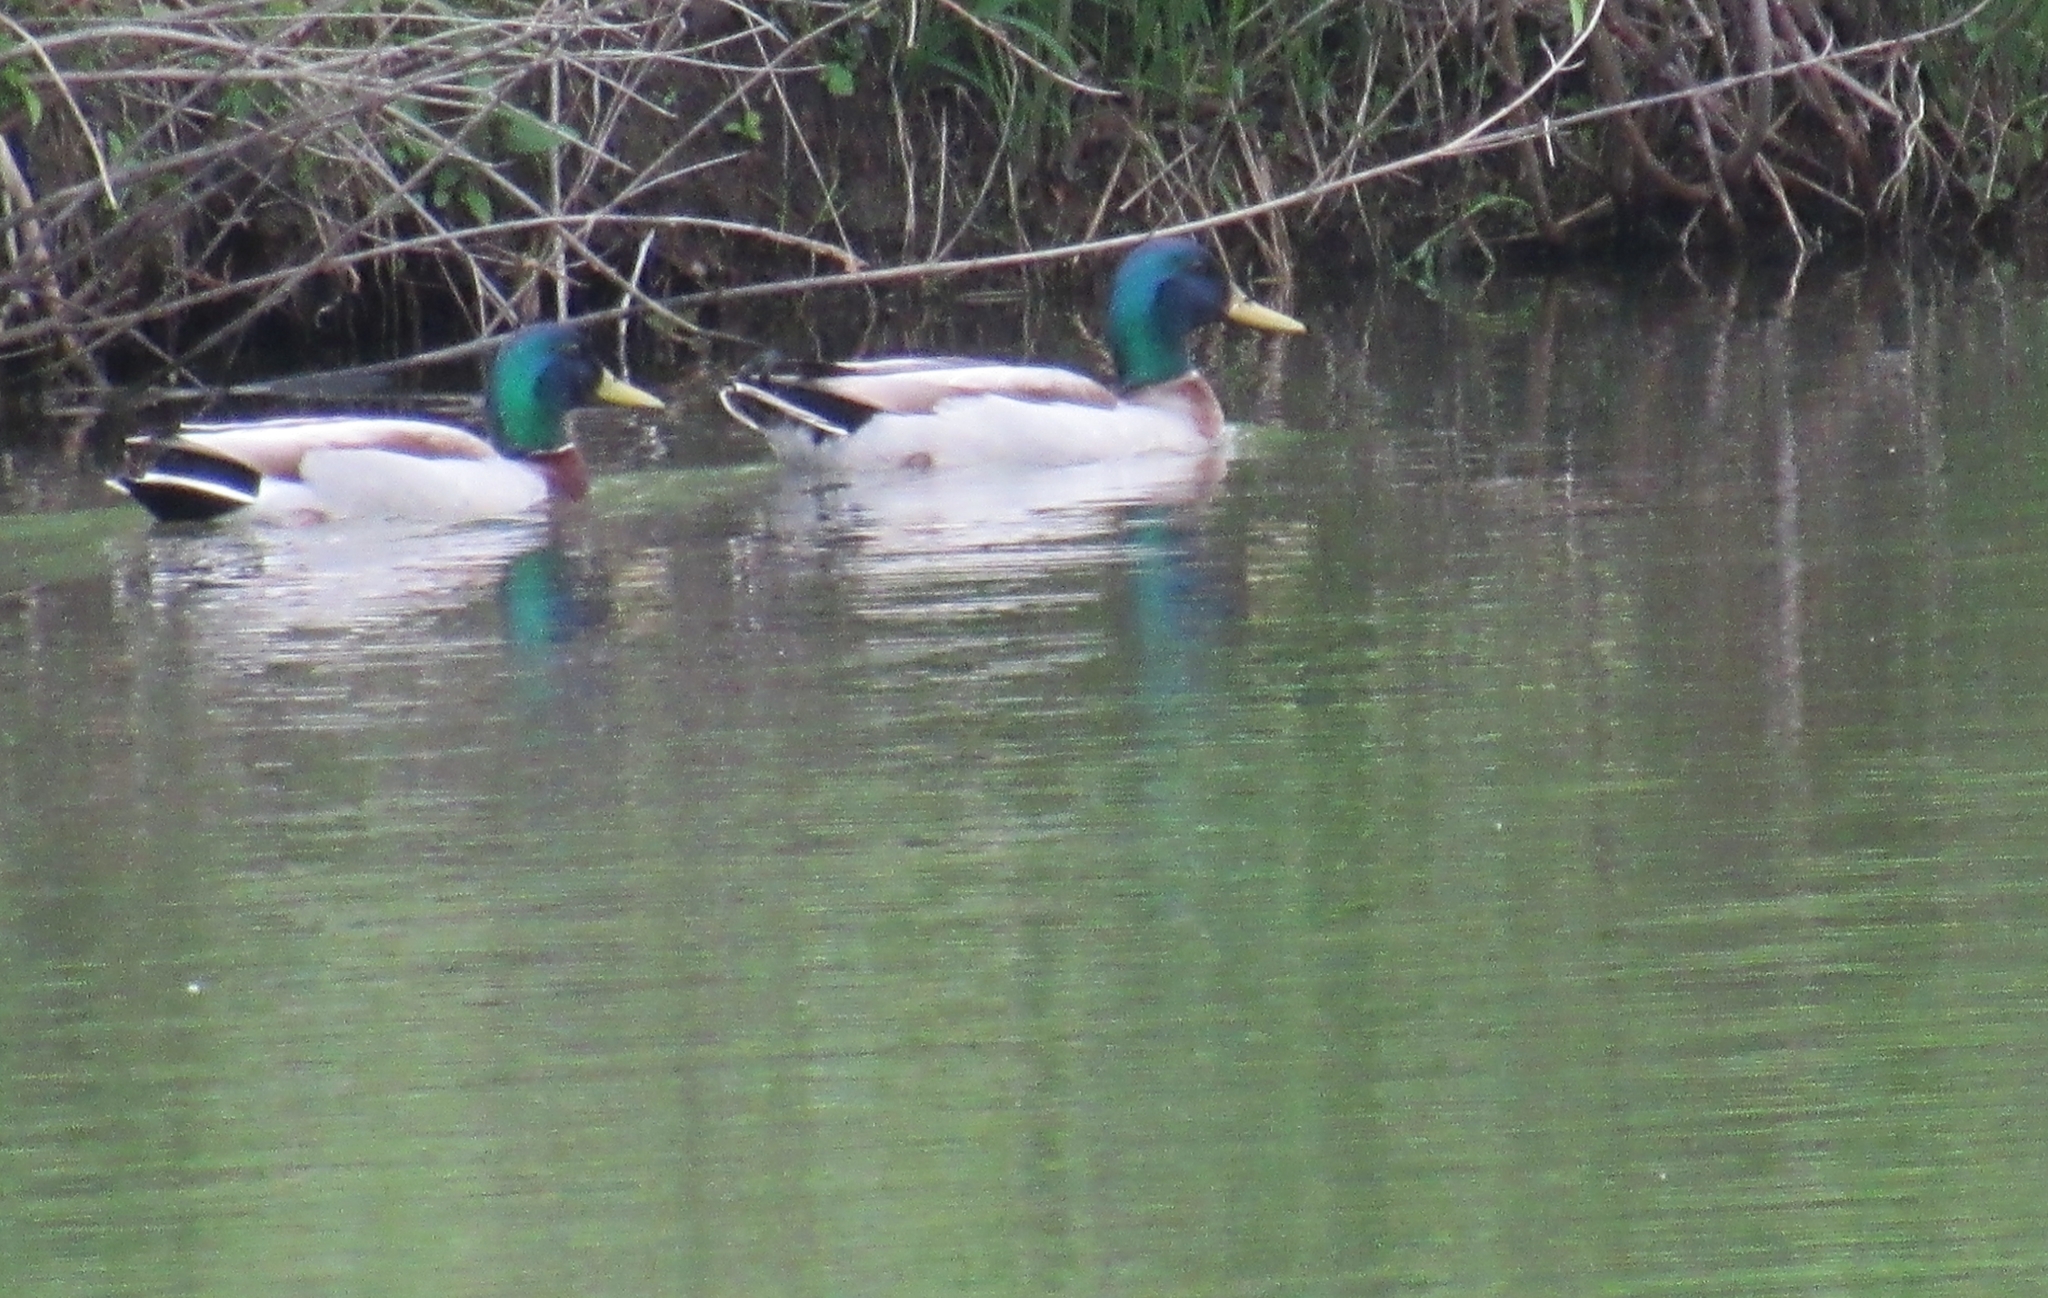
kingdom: Animalia
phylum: Chordata
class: Aves
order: Anseriformes
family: Anatidae
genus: Anas
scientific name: Anas platyrhynchos
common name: Mallard
